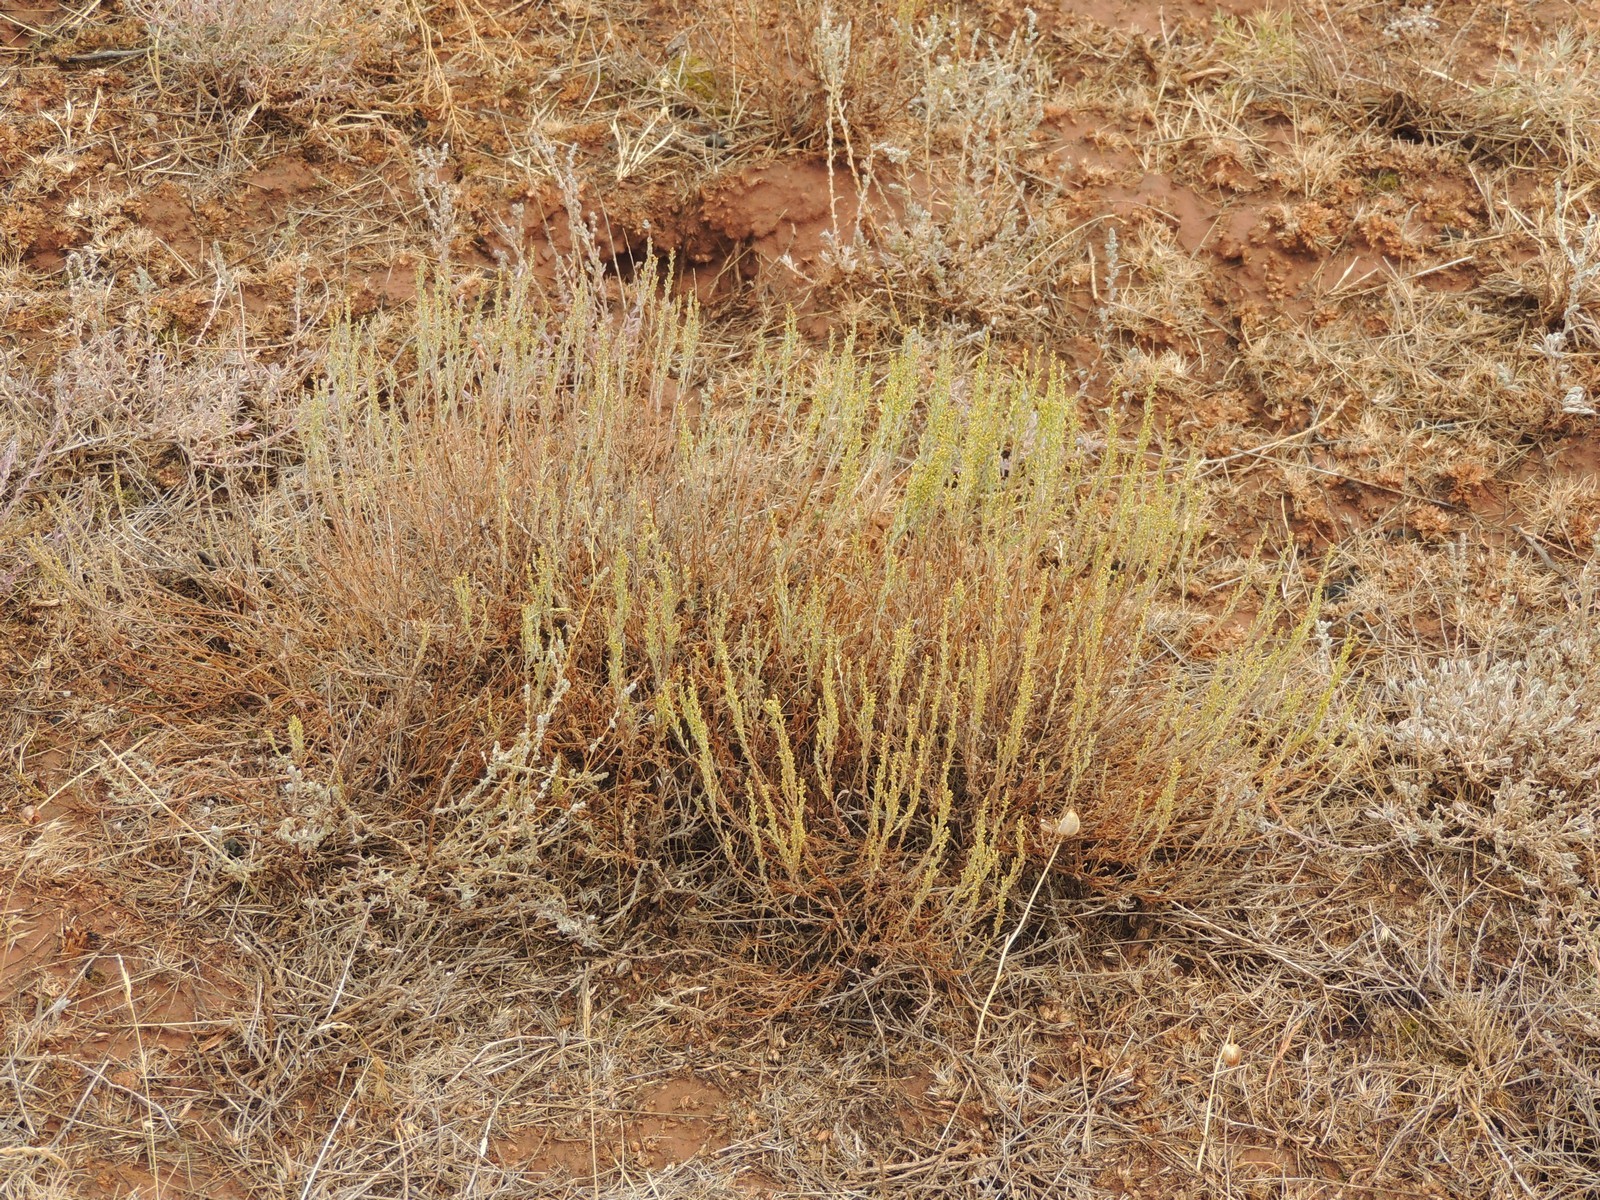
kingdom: Plantae
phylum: Tracheophyta
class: Magnoliopsida
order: Asterales
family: Asteraceae
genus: Artemisia
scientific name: Artemisia pauciflora
